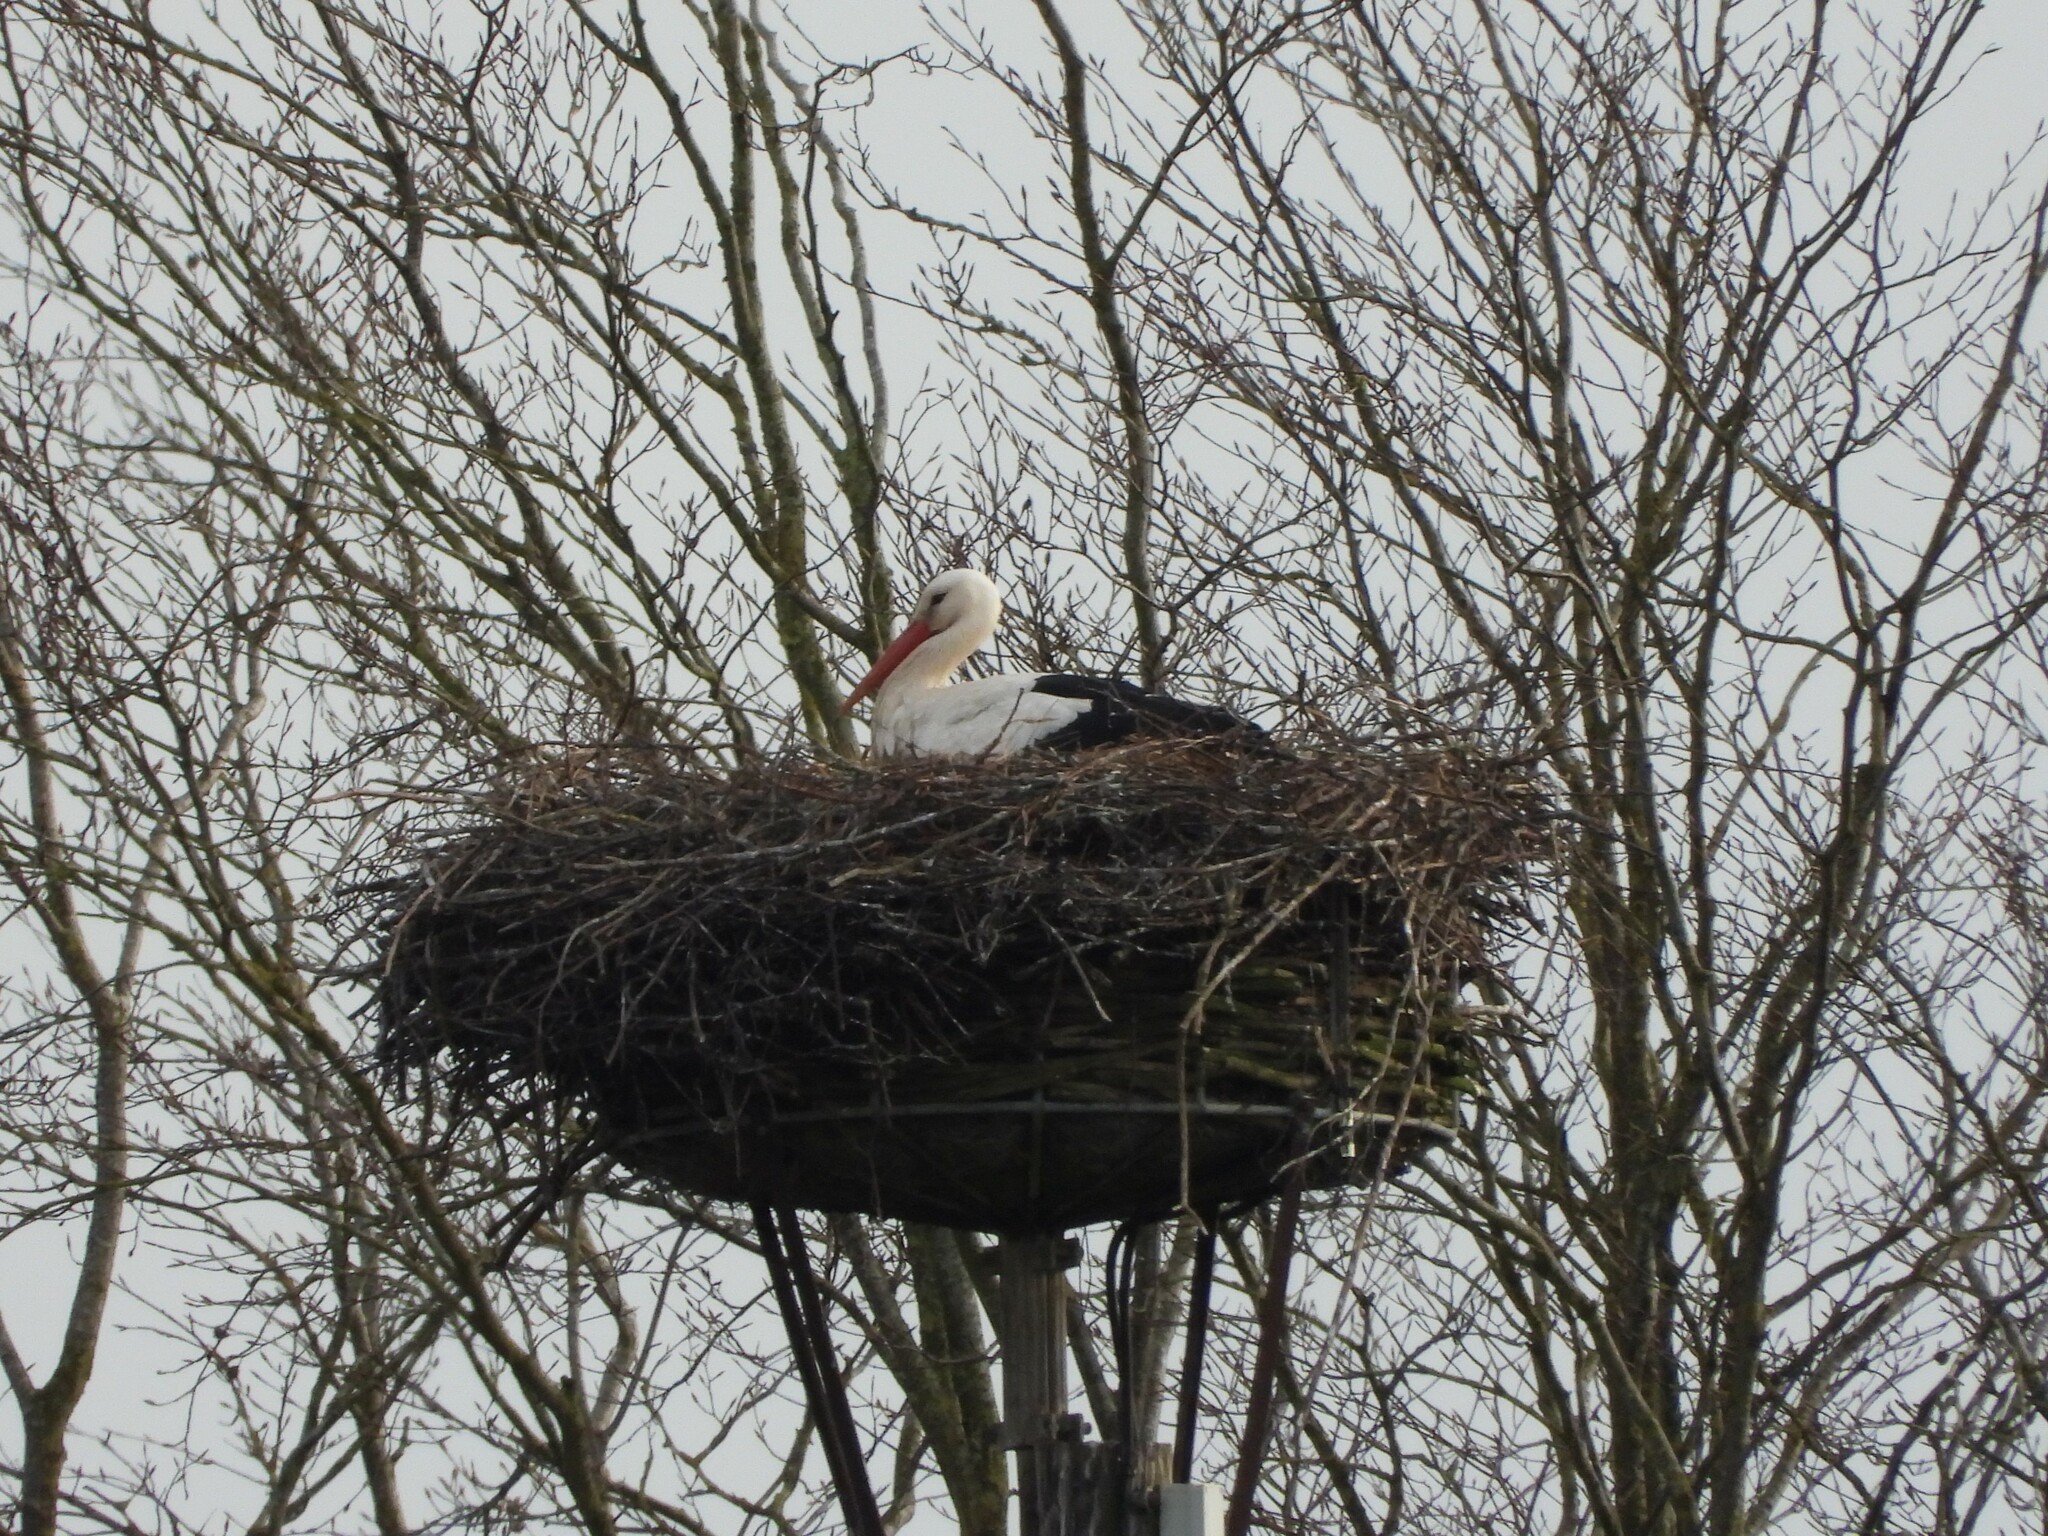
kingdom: Animalia
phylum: Chordata
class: Aves
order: Ciconiiformes
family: Ciconiidae
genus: Ciconia
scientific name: Ciconia ciconia
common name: White stork
